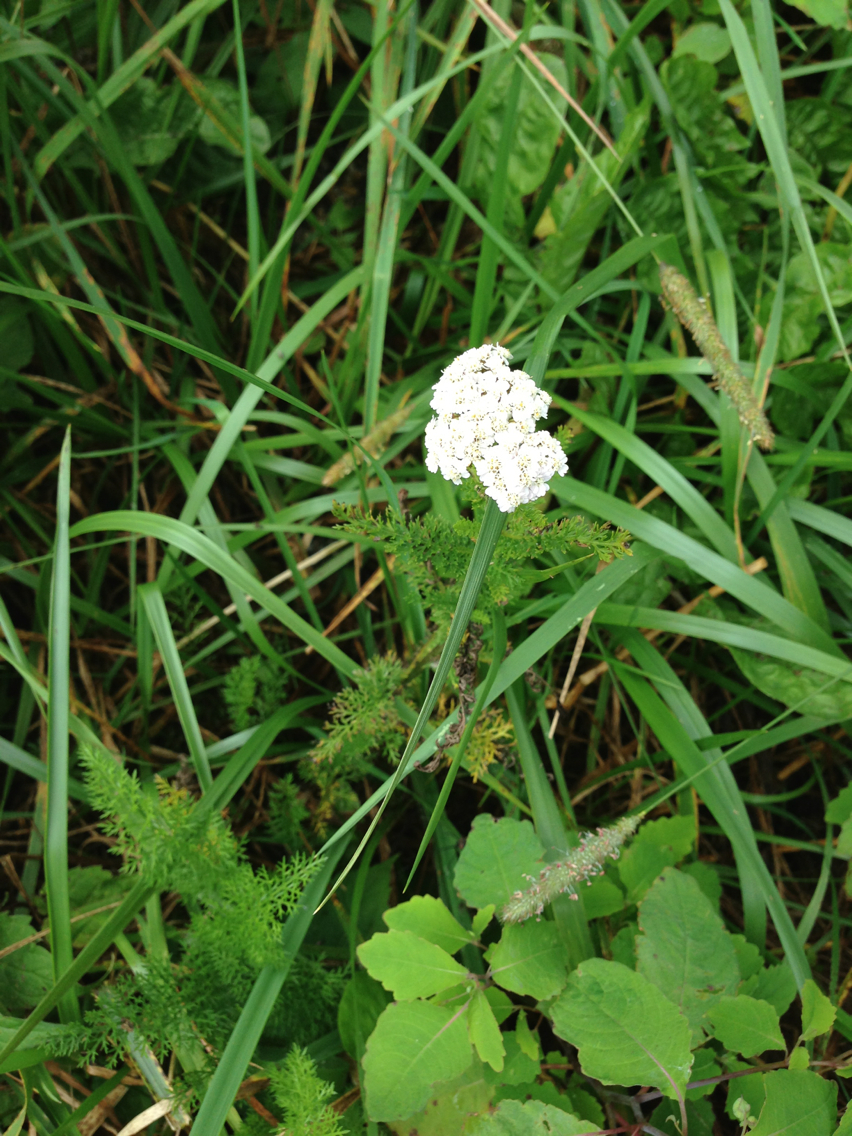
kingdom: Plantae
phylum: Tracheophyta
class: Magnoliopsida
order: Asterales
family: Asteraceae
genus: Achillea
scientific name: Achillea millefolium
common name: Yarrow
